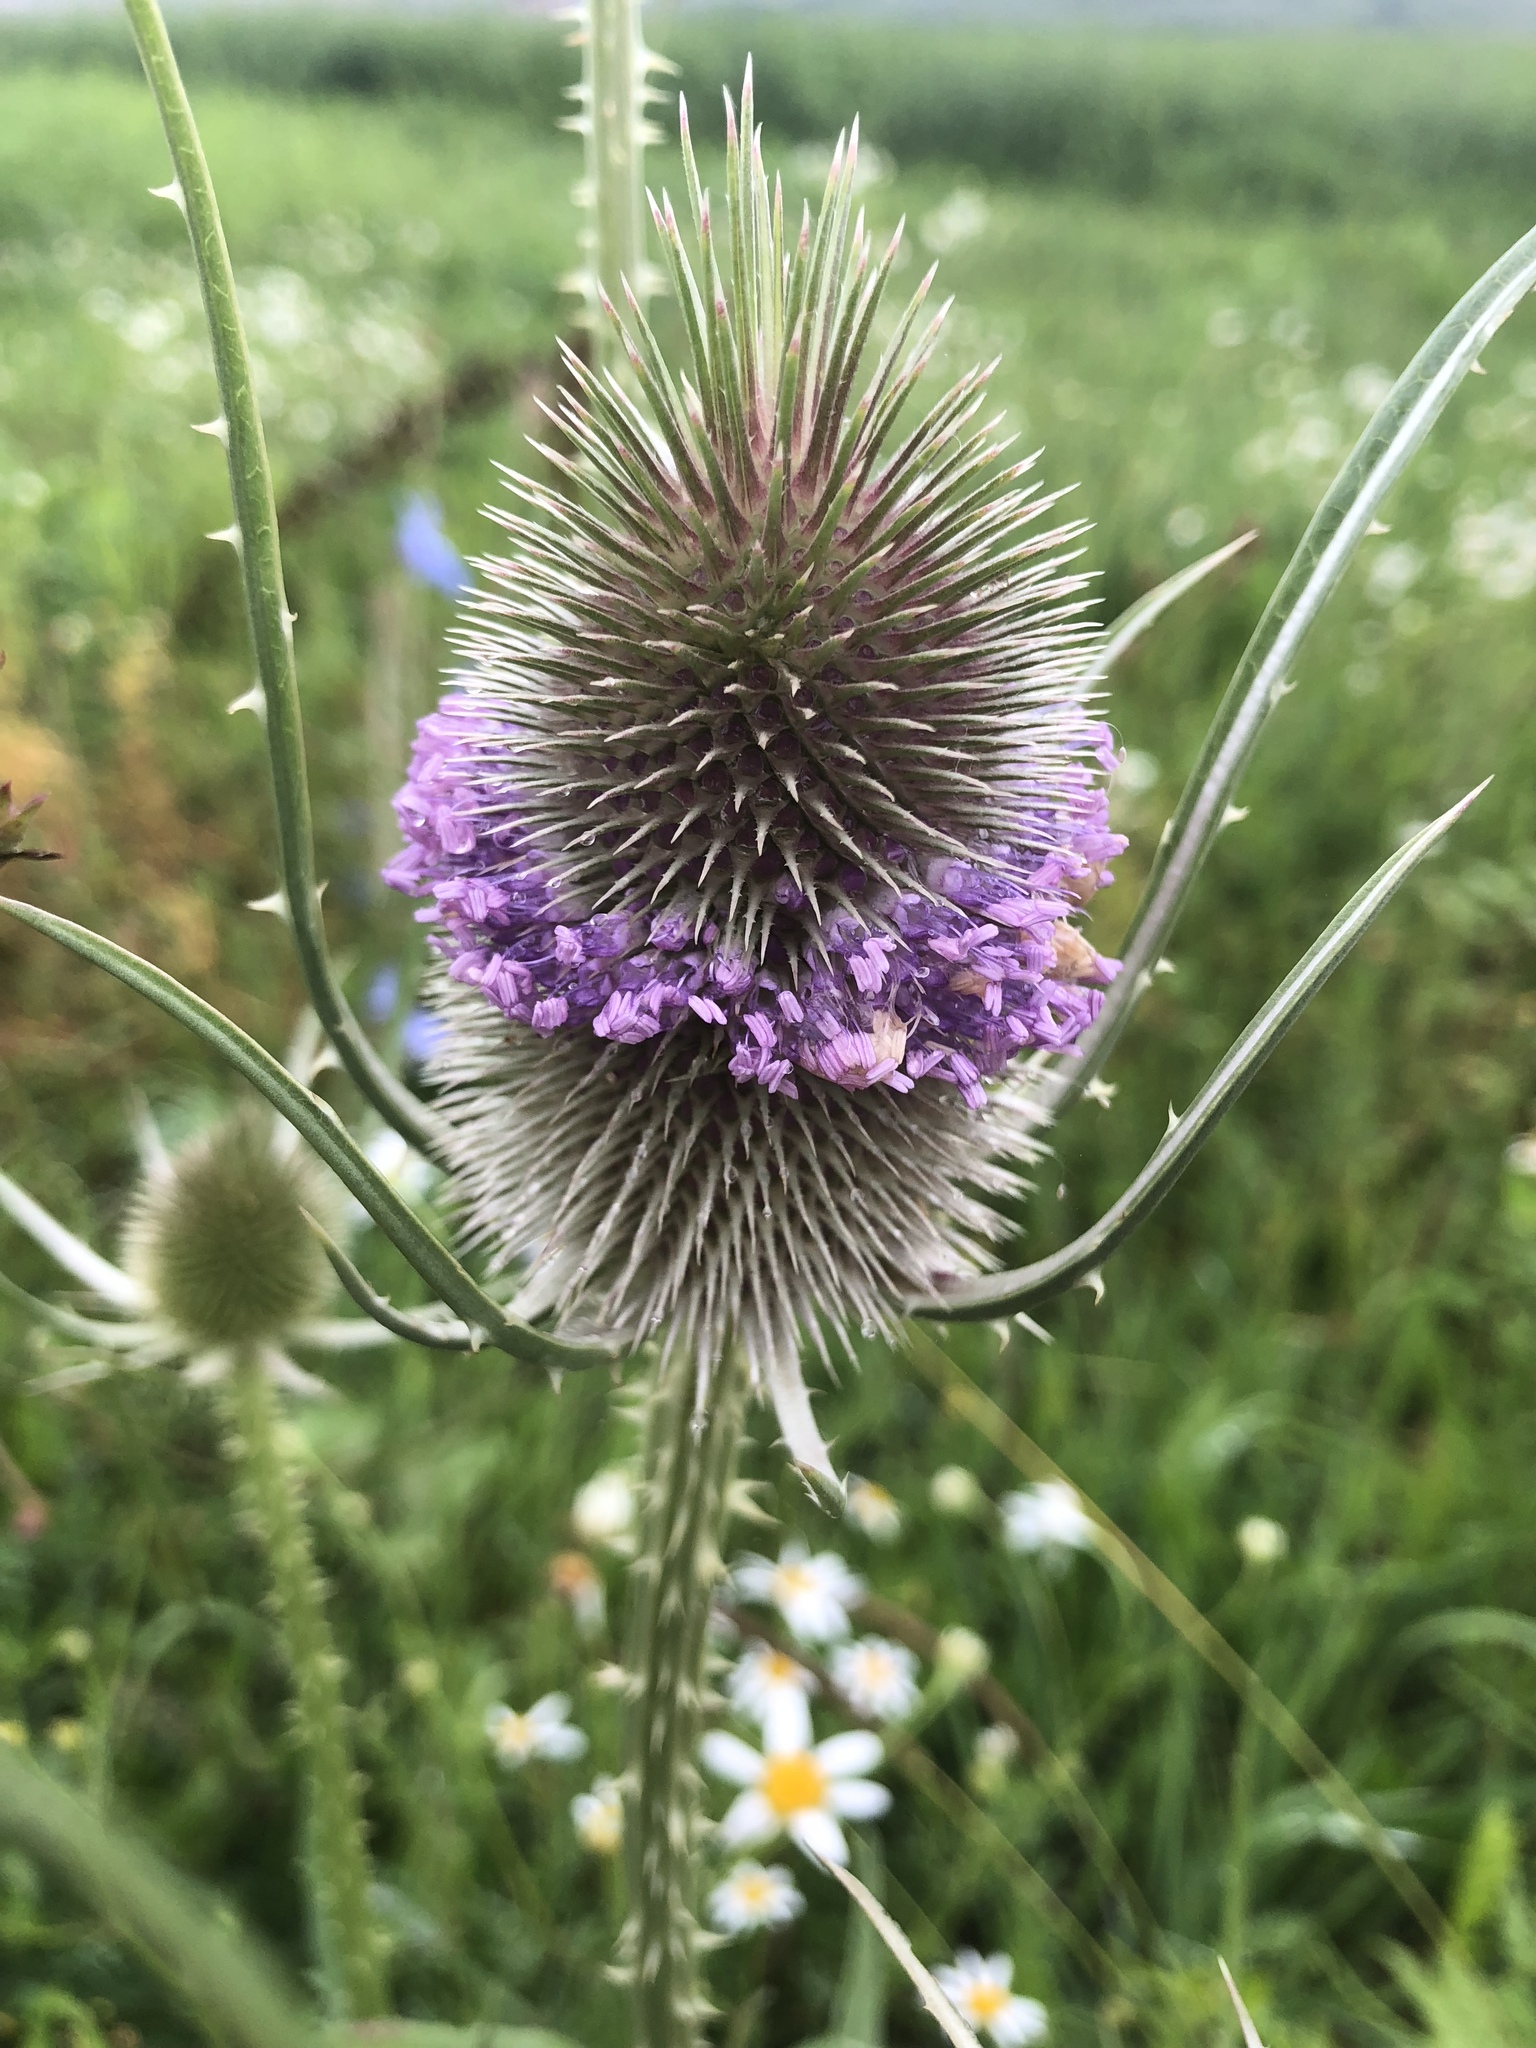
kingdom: Plantae
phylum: Tracheophyta
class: Magnoliopsida
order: Dipsacales
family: Caprifoliaceae
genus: Dipsacus
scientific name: Dipsacus fullonum
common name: Teasel
